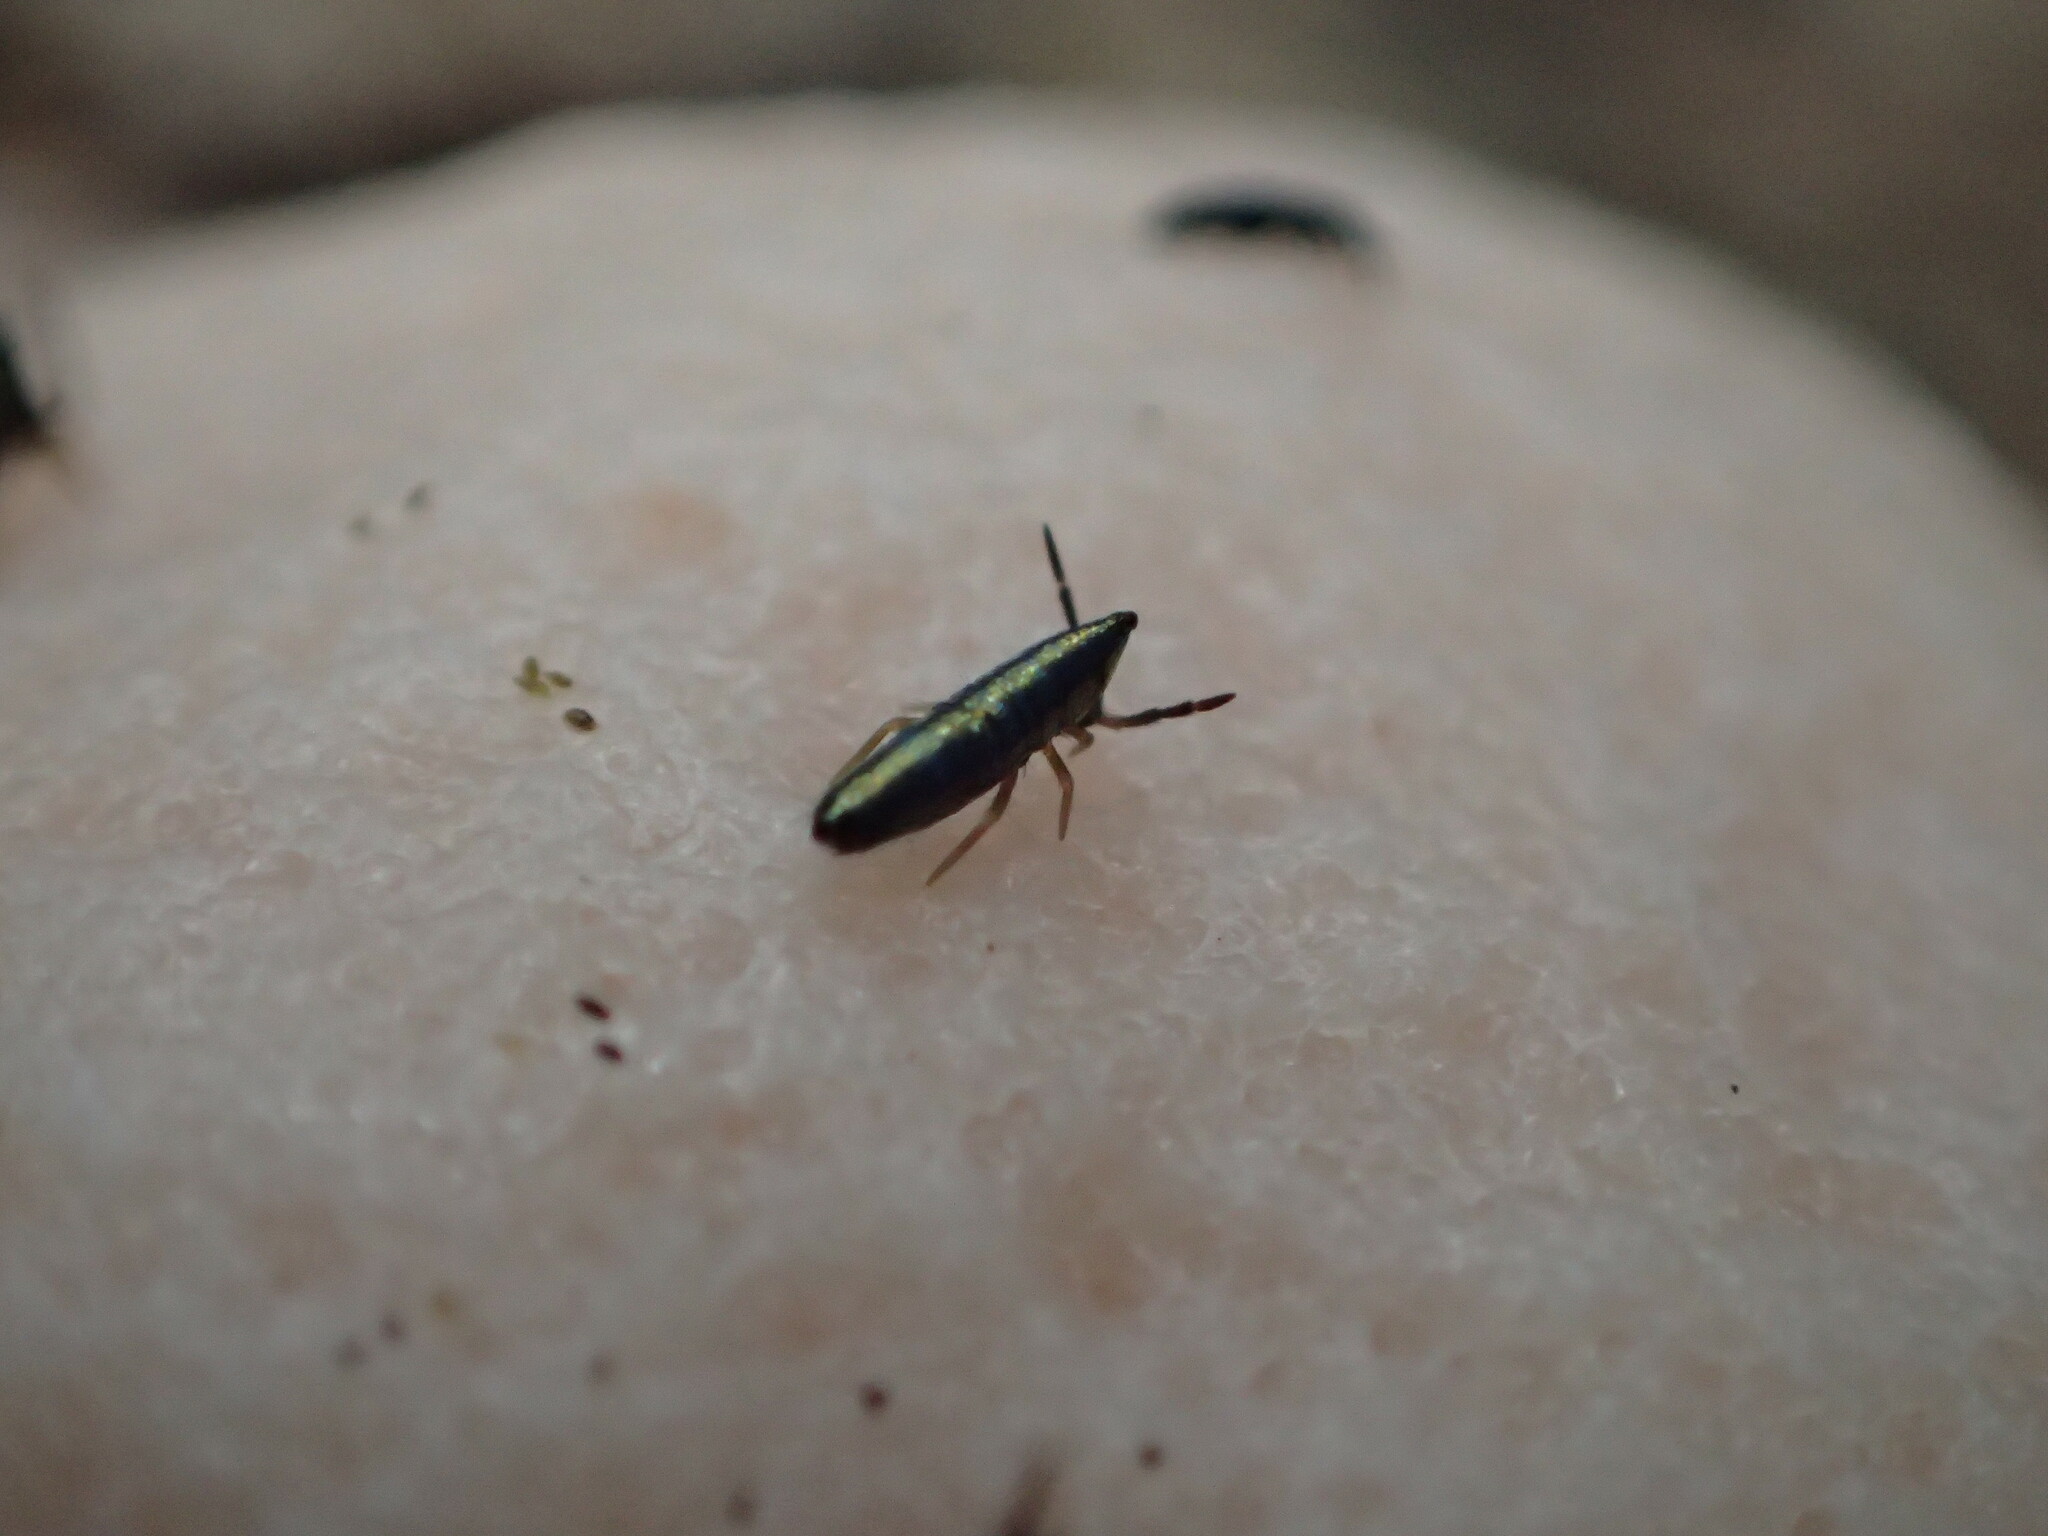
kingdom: Animalia
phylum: Arthropoda
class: Collembola
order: Entomobryomorpha
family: Entomobryidae
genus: Lepidocyrtus
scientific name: Lepidocyrtus paradoxus
